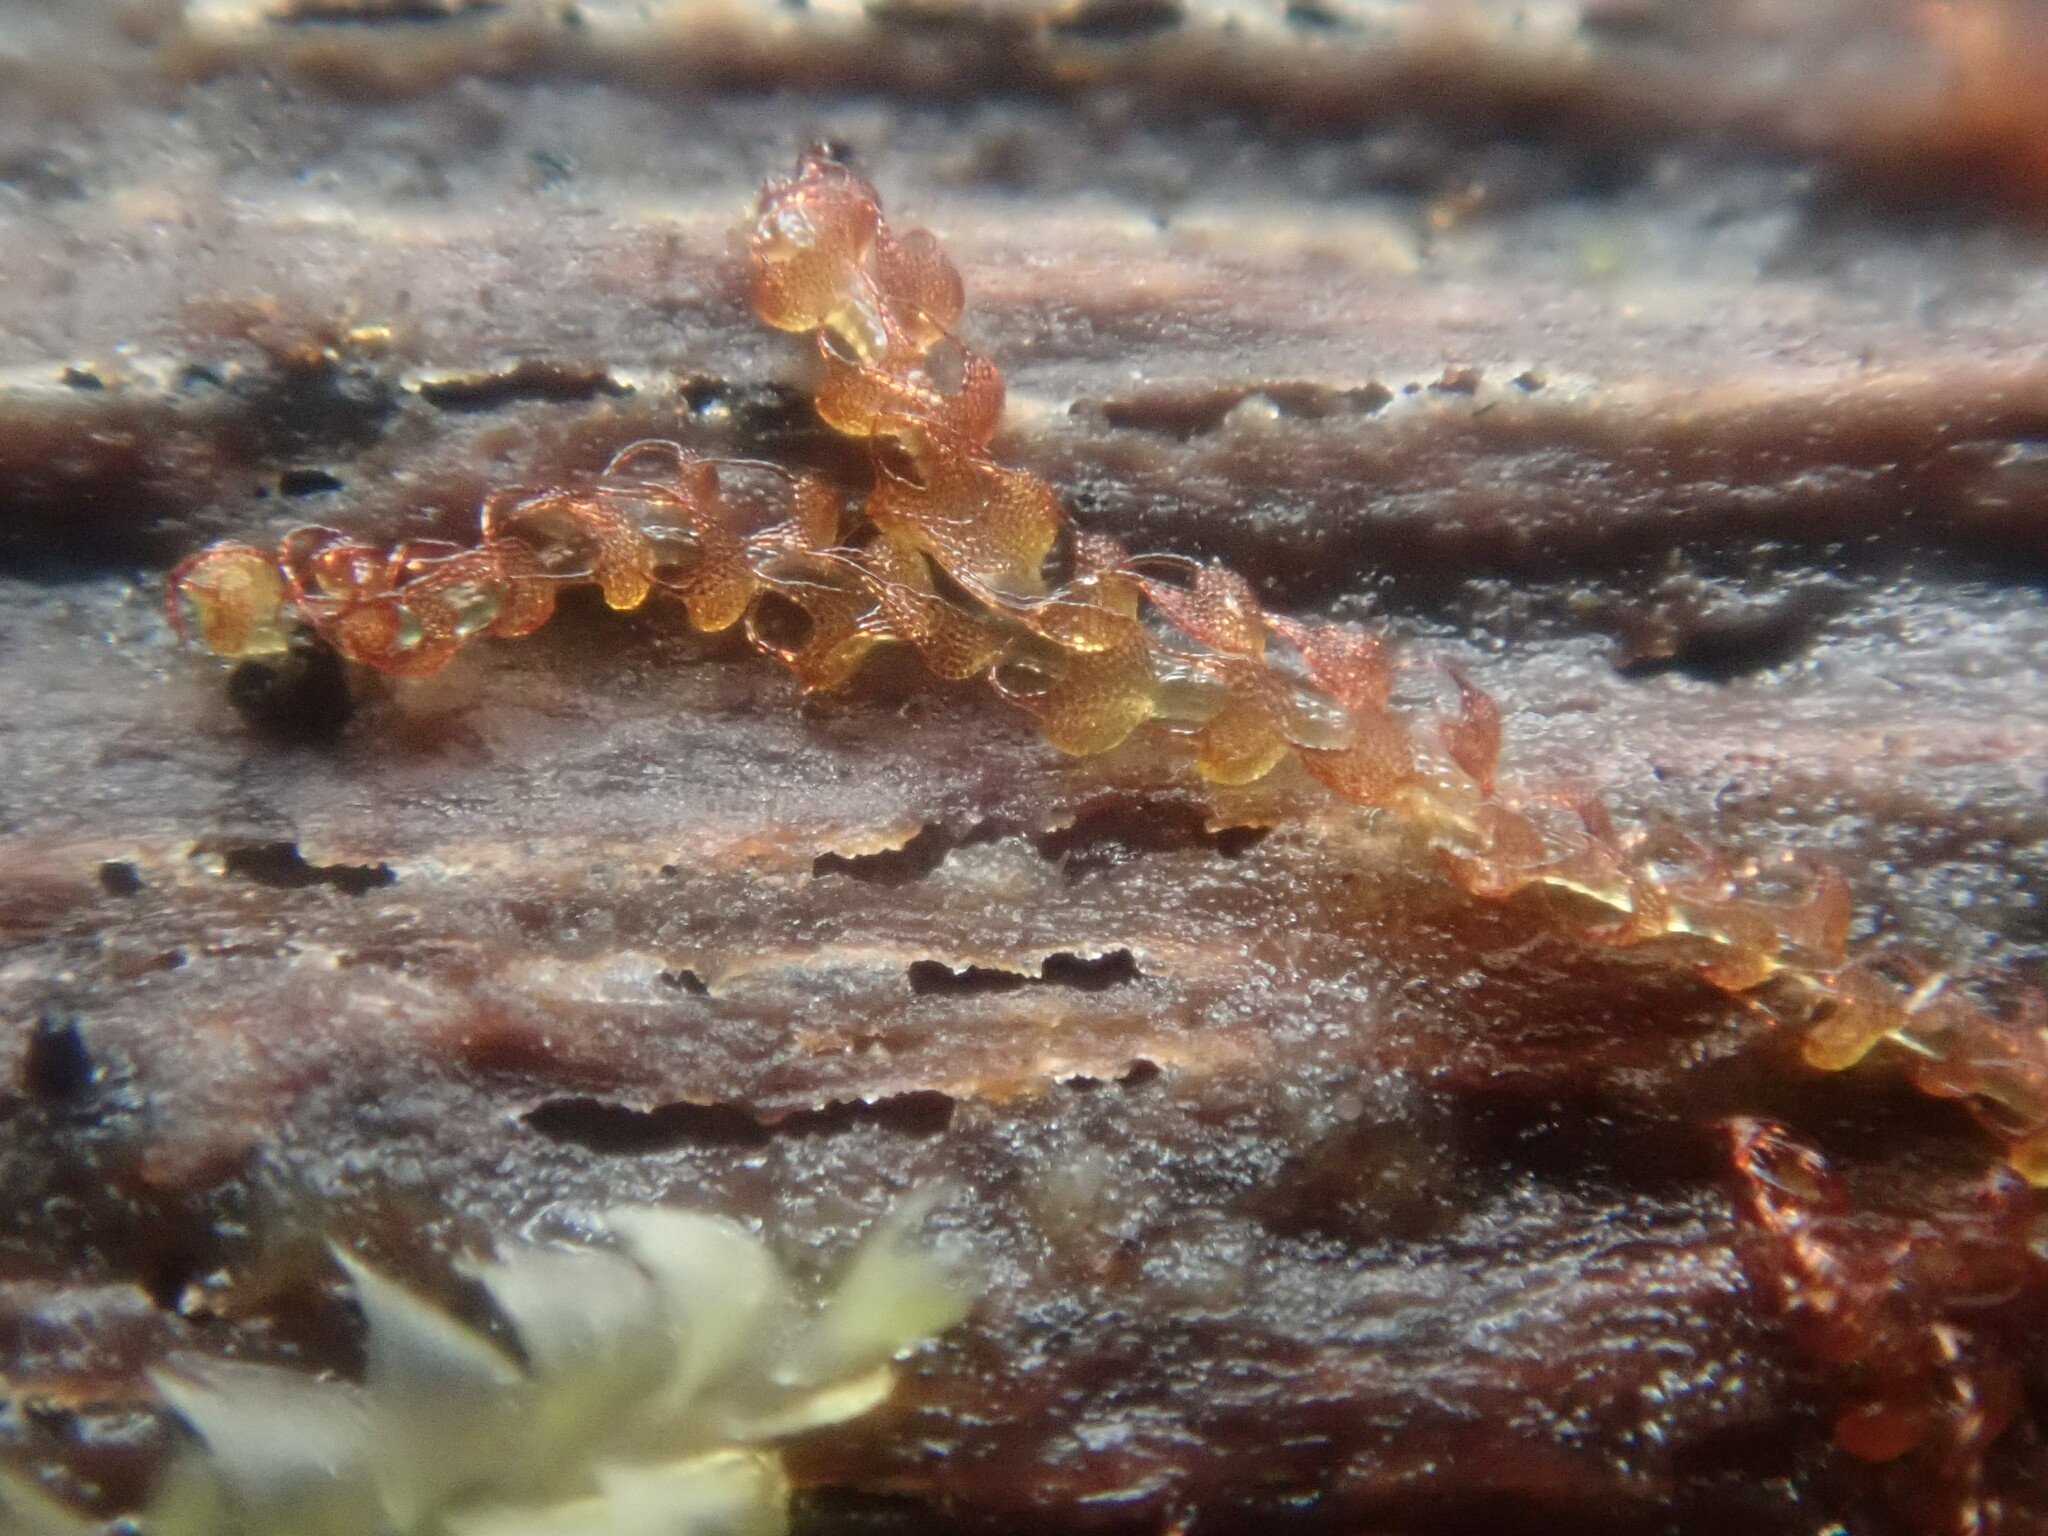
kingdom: Plantae
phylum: Marchantiophyta
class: Jungermanniopsida
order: Jungermanniales
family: Cephaloziaceae
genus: Nowellia
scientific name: Nowellia curvifolia
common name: Wood rustwort
